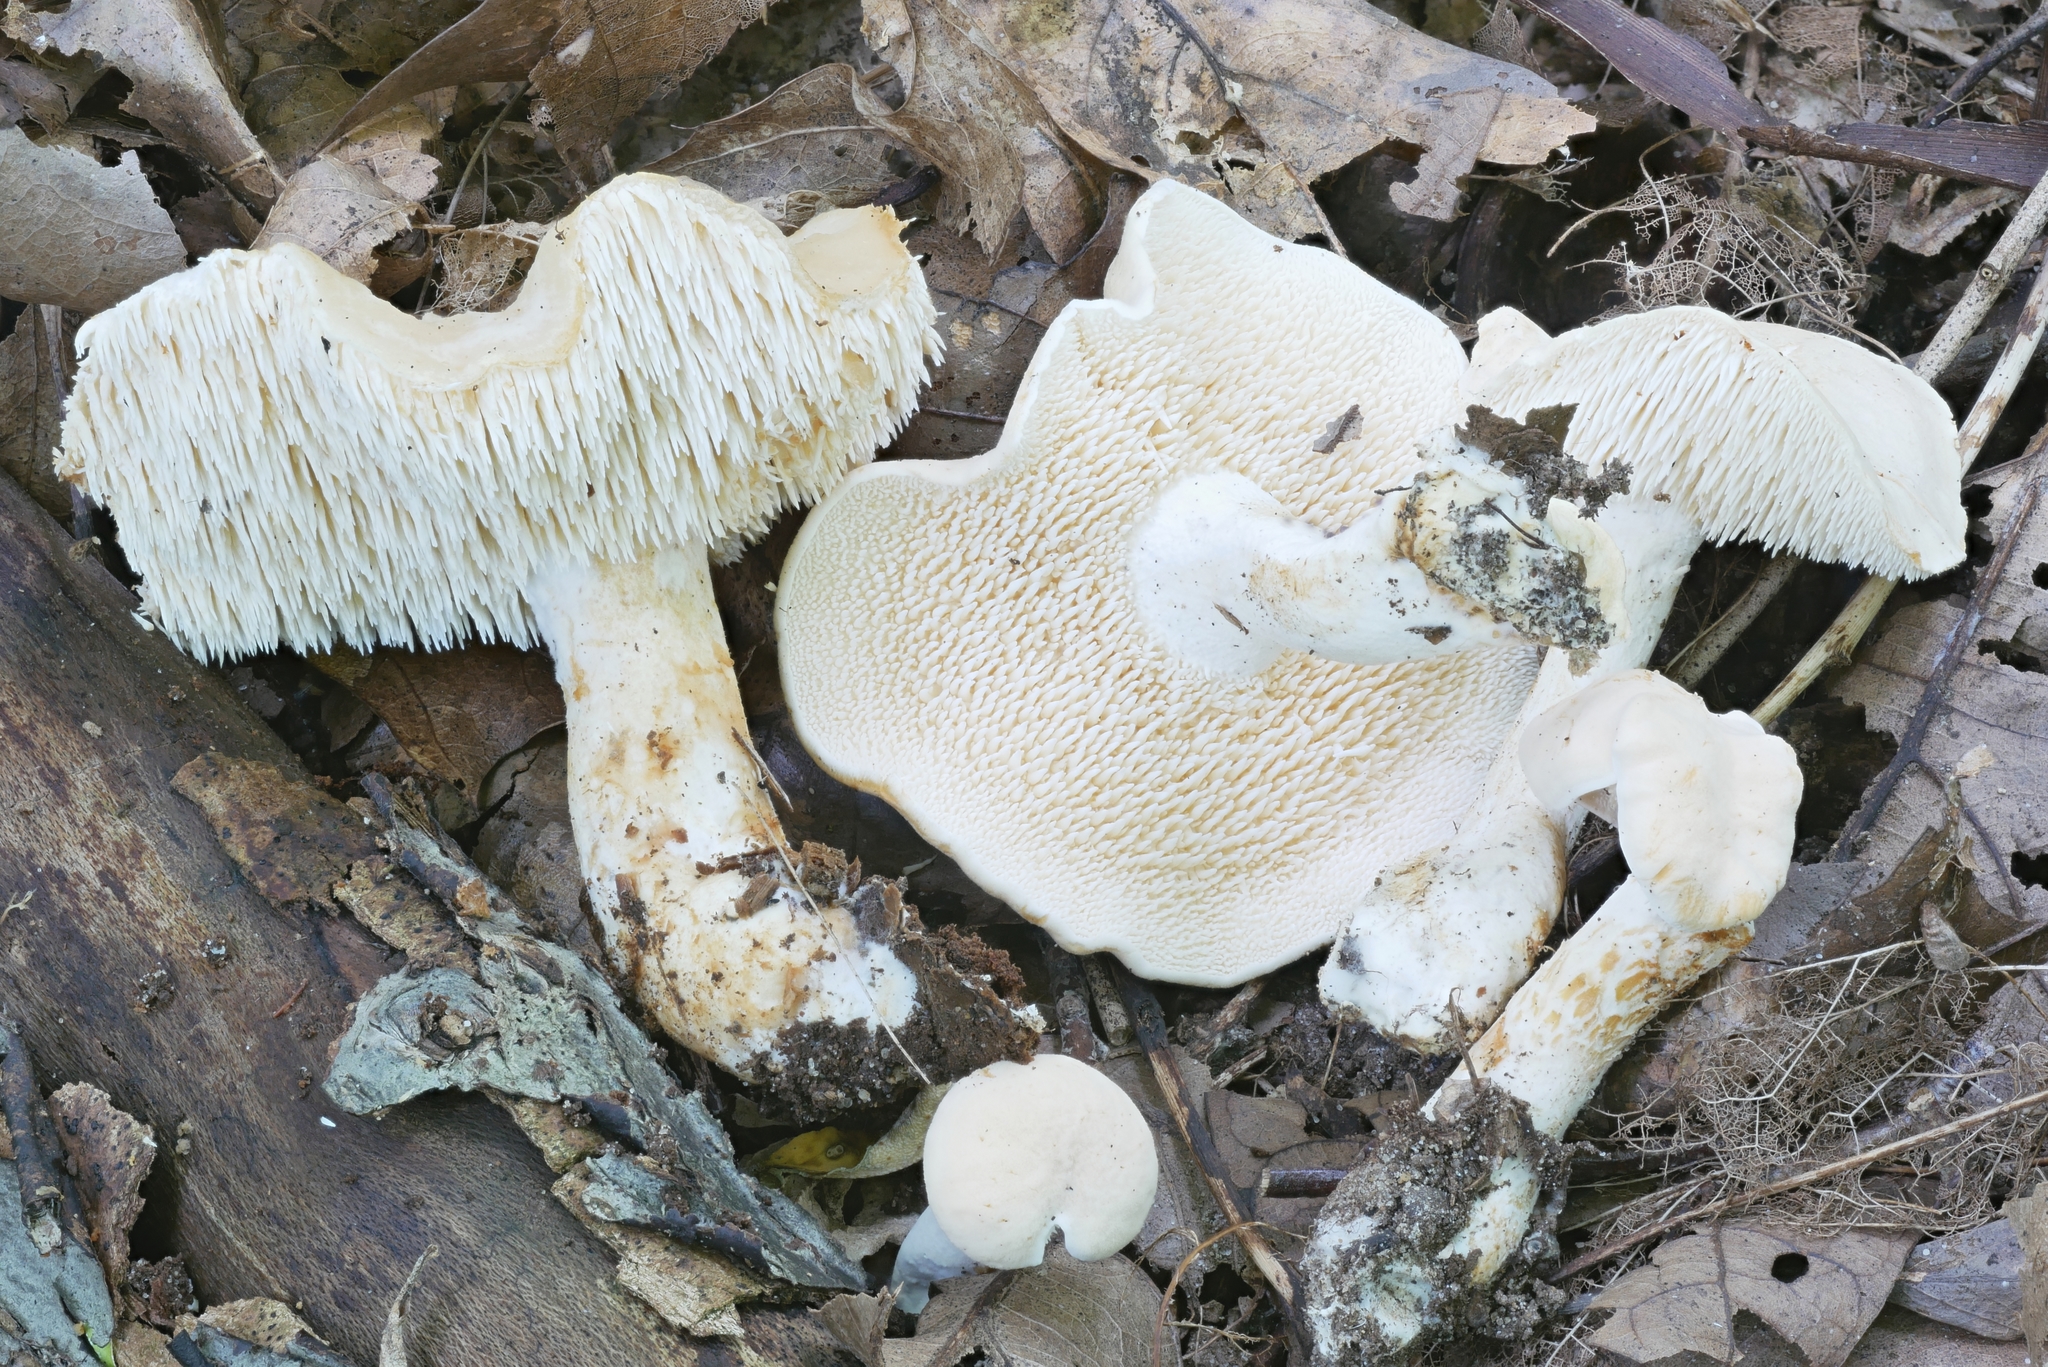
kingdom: Fungi
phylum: Basidiomycota
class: Agaricomycetes
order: Cantharellales
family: Hydnaceae
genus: Hydnum
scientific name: Hydnum subtilior
